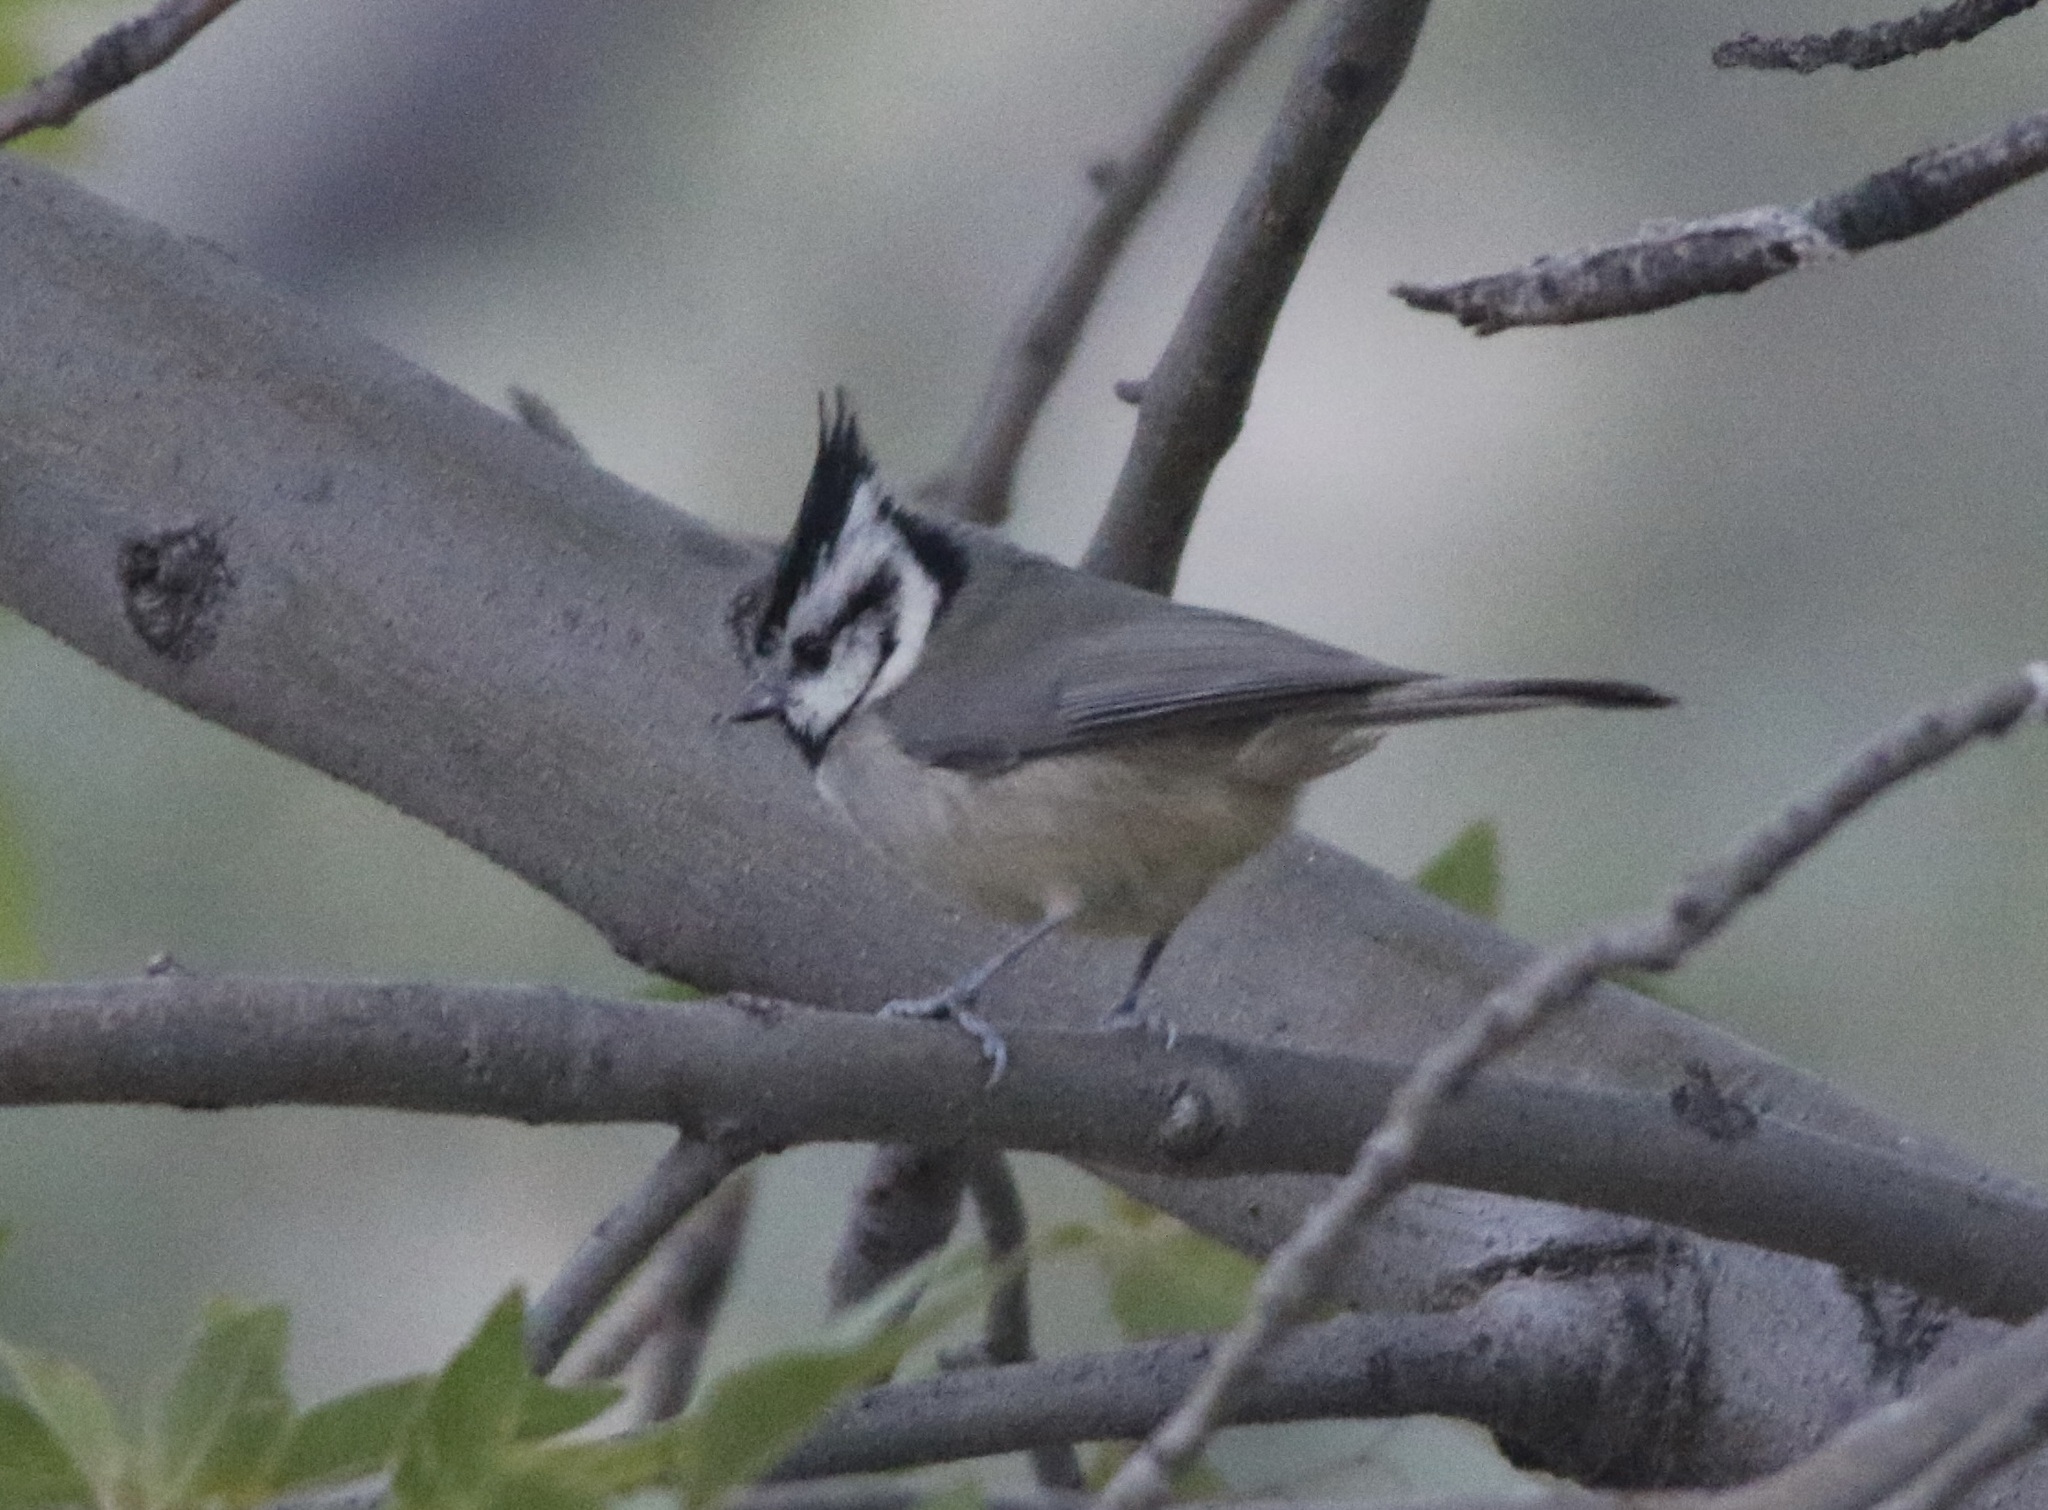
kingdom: Animalia
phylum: Chordata
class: Aves
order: Passeriformes
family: Paridae
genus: Baeolophus
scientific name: Baeolophus wollweberi
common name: Bridled titmouse
